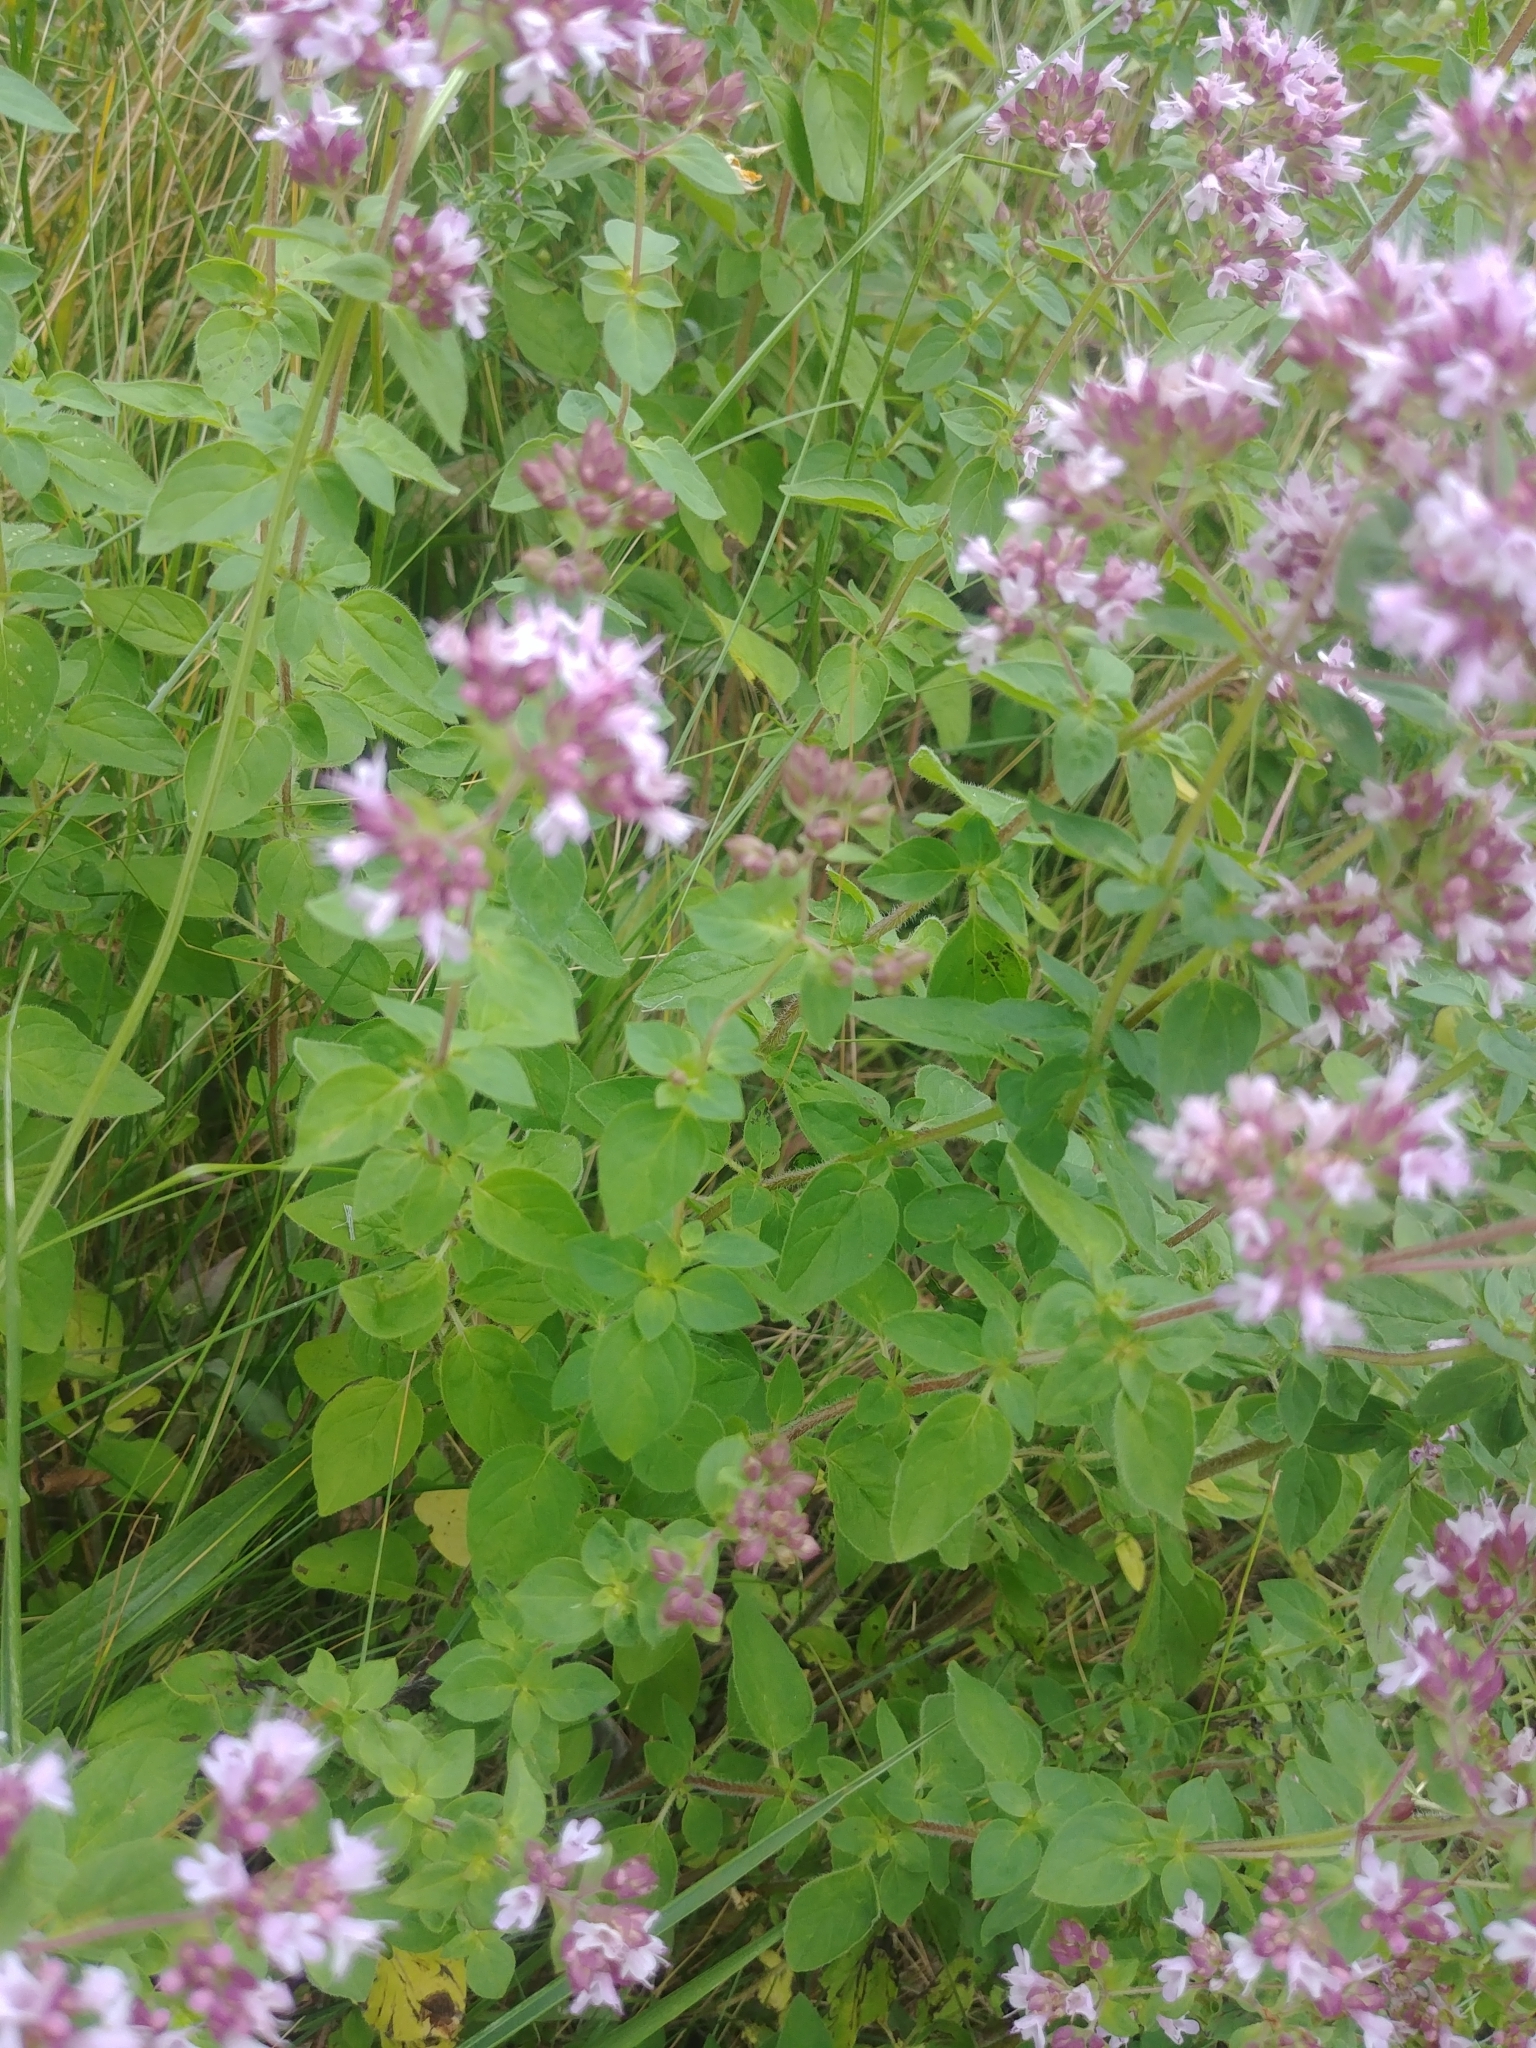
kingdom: Plantae
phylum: Tracheophyta
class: Magnoliopsida
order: Lamiales
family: Lamiaceae
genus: Origanum
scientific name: Origanum vulgare
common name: Wild marjoram
